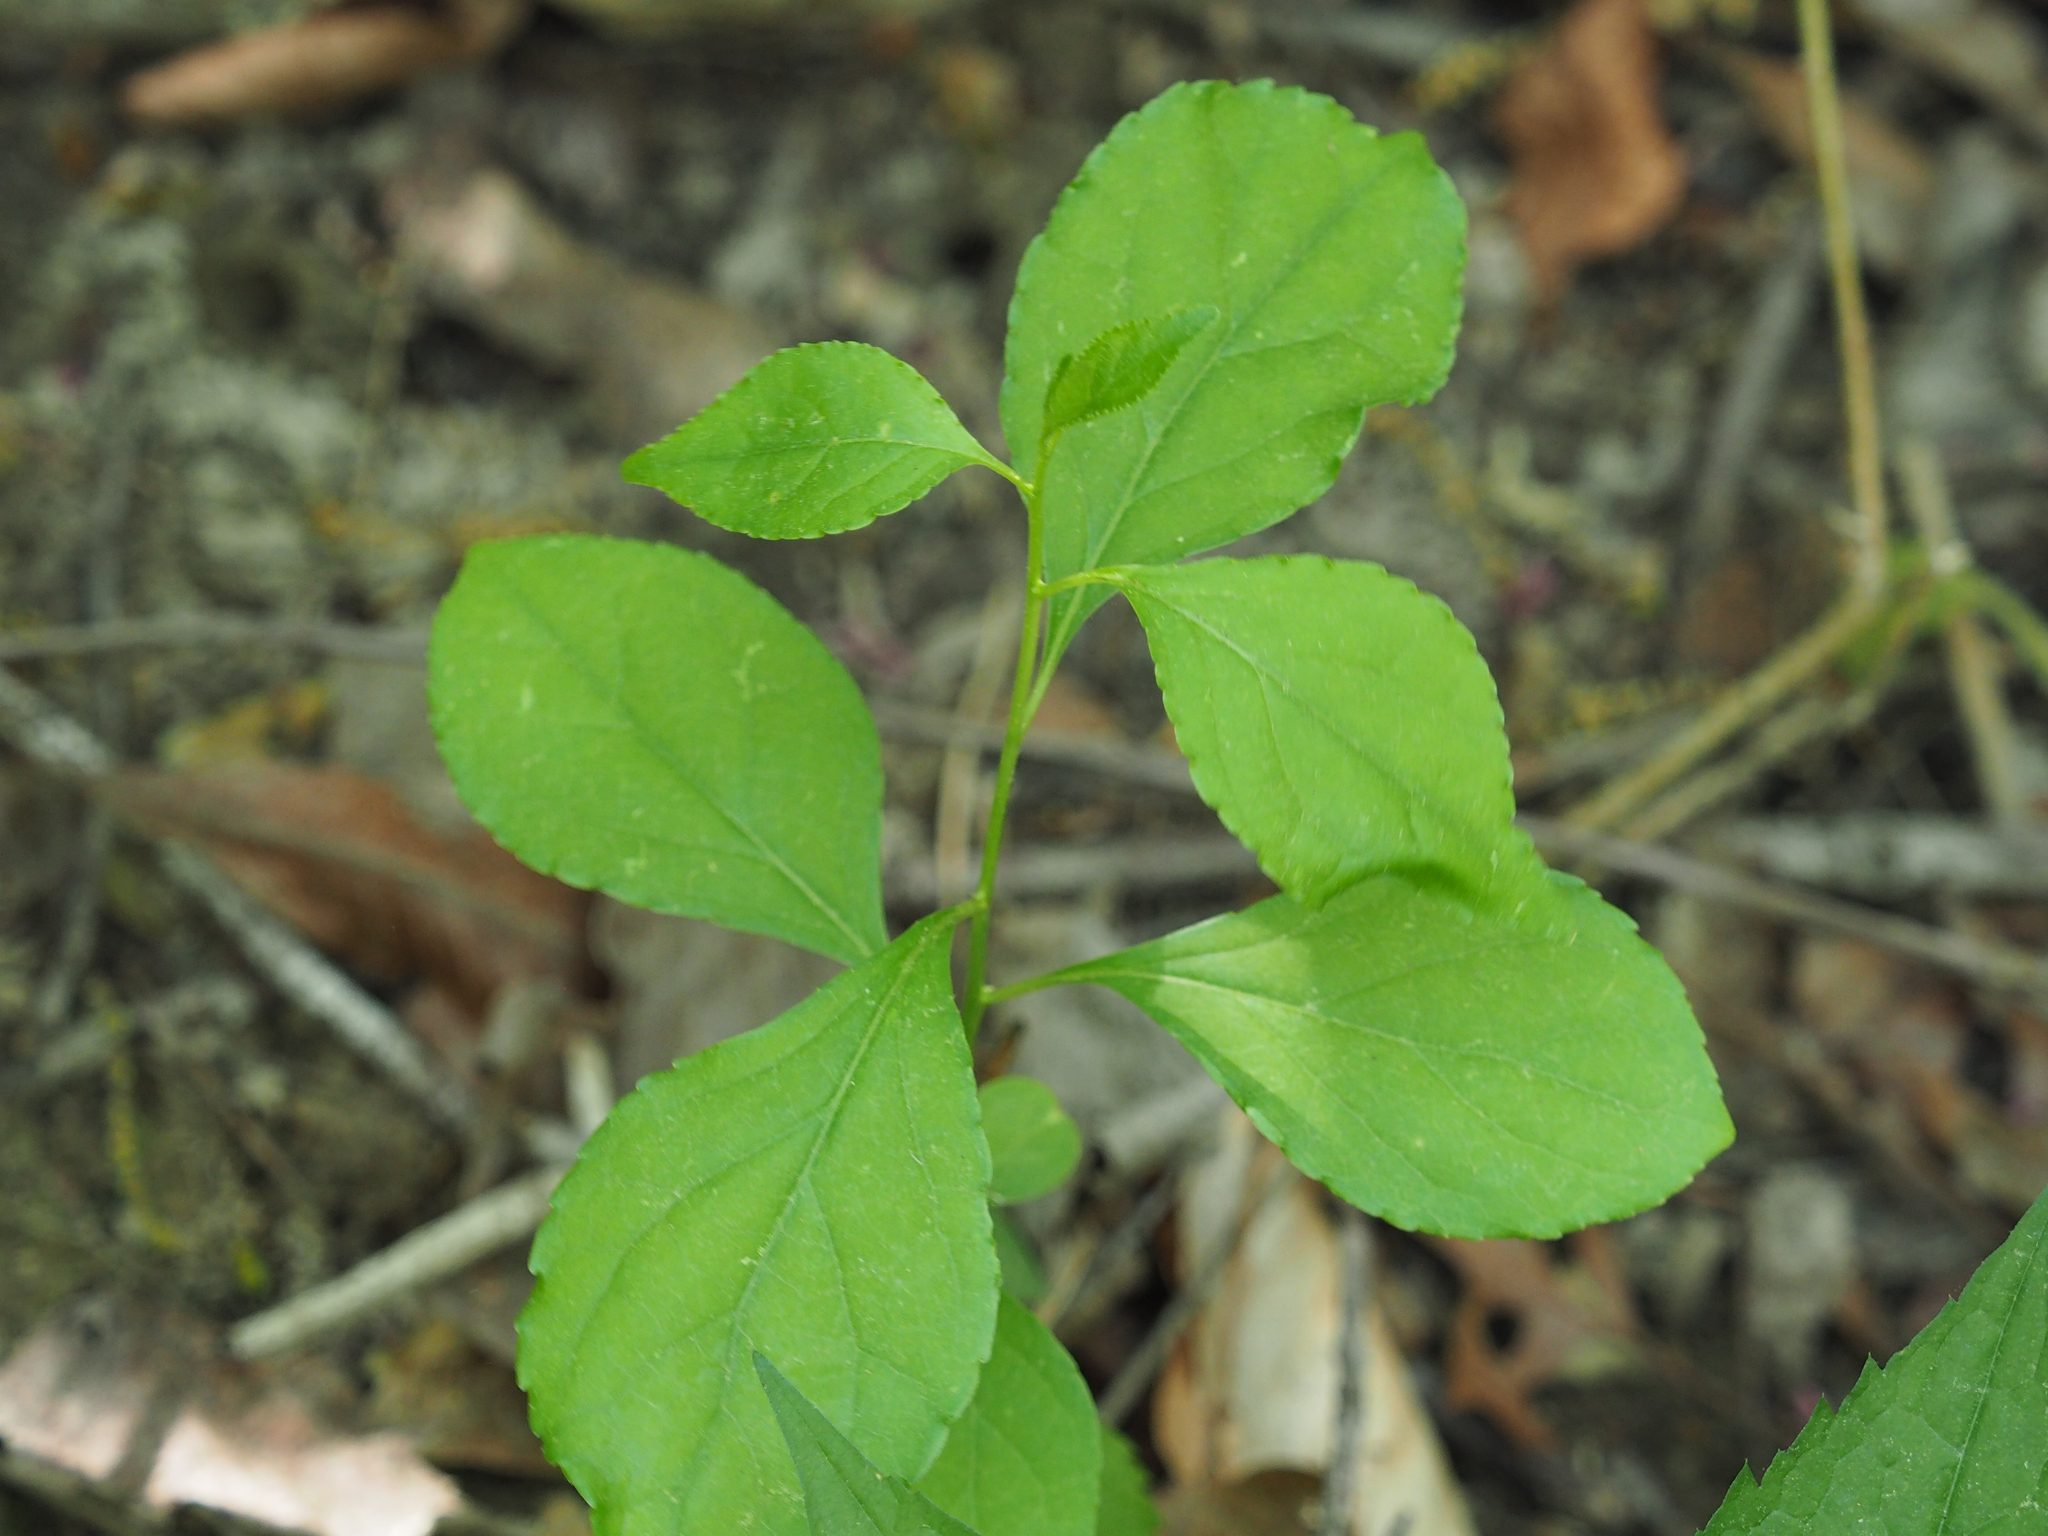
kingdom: Plantae
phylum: Tracheophyta
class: Magnoliopsida
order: Celastrales
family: Celastraceae
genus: Celastrus
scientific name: Celastrus orbiculatus
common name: Oriental bittersweet
